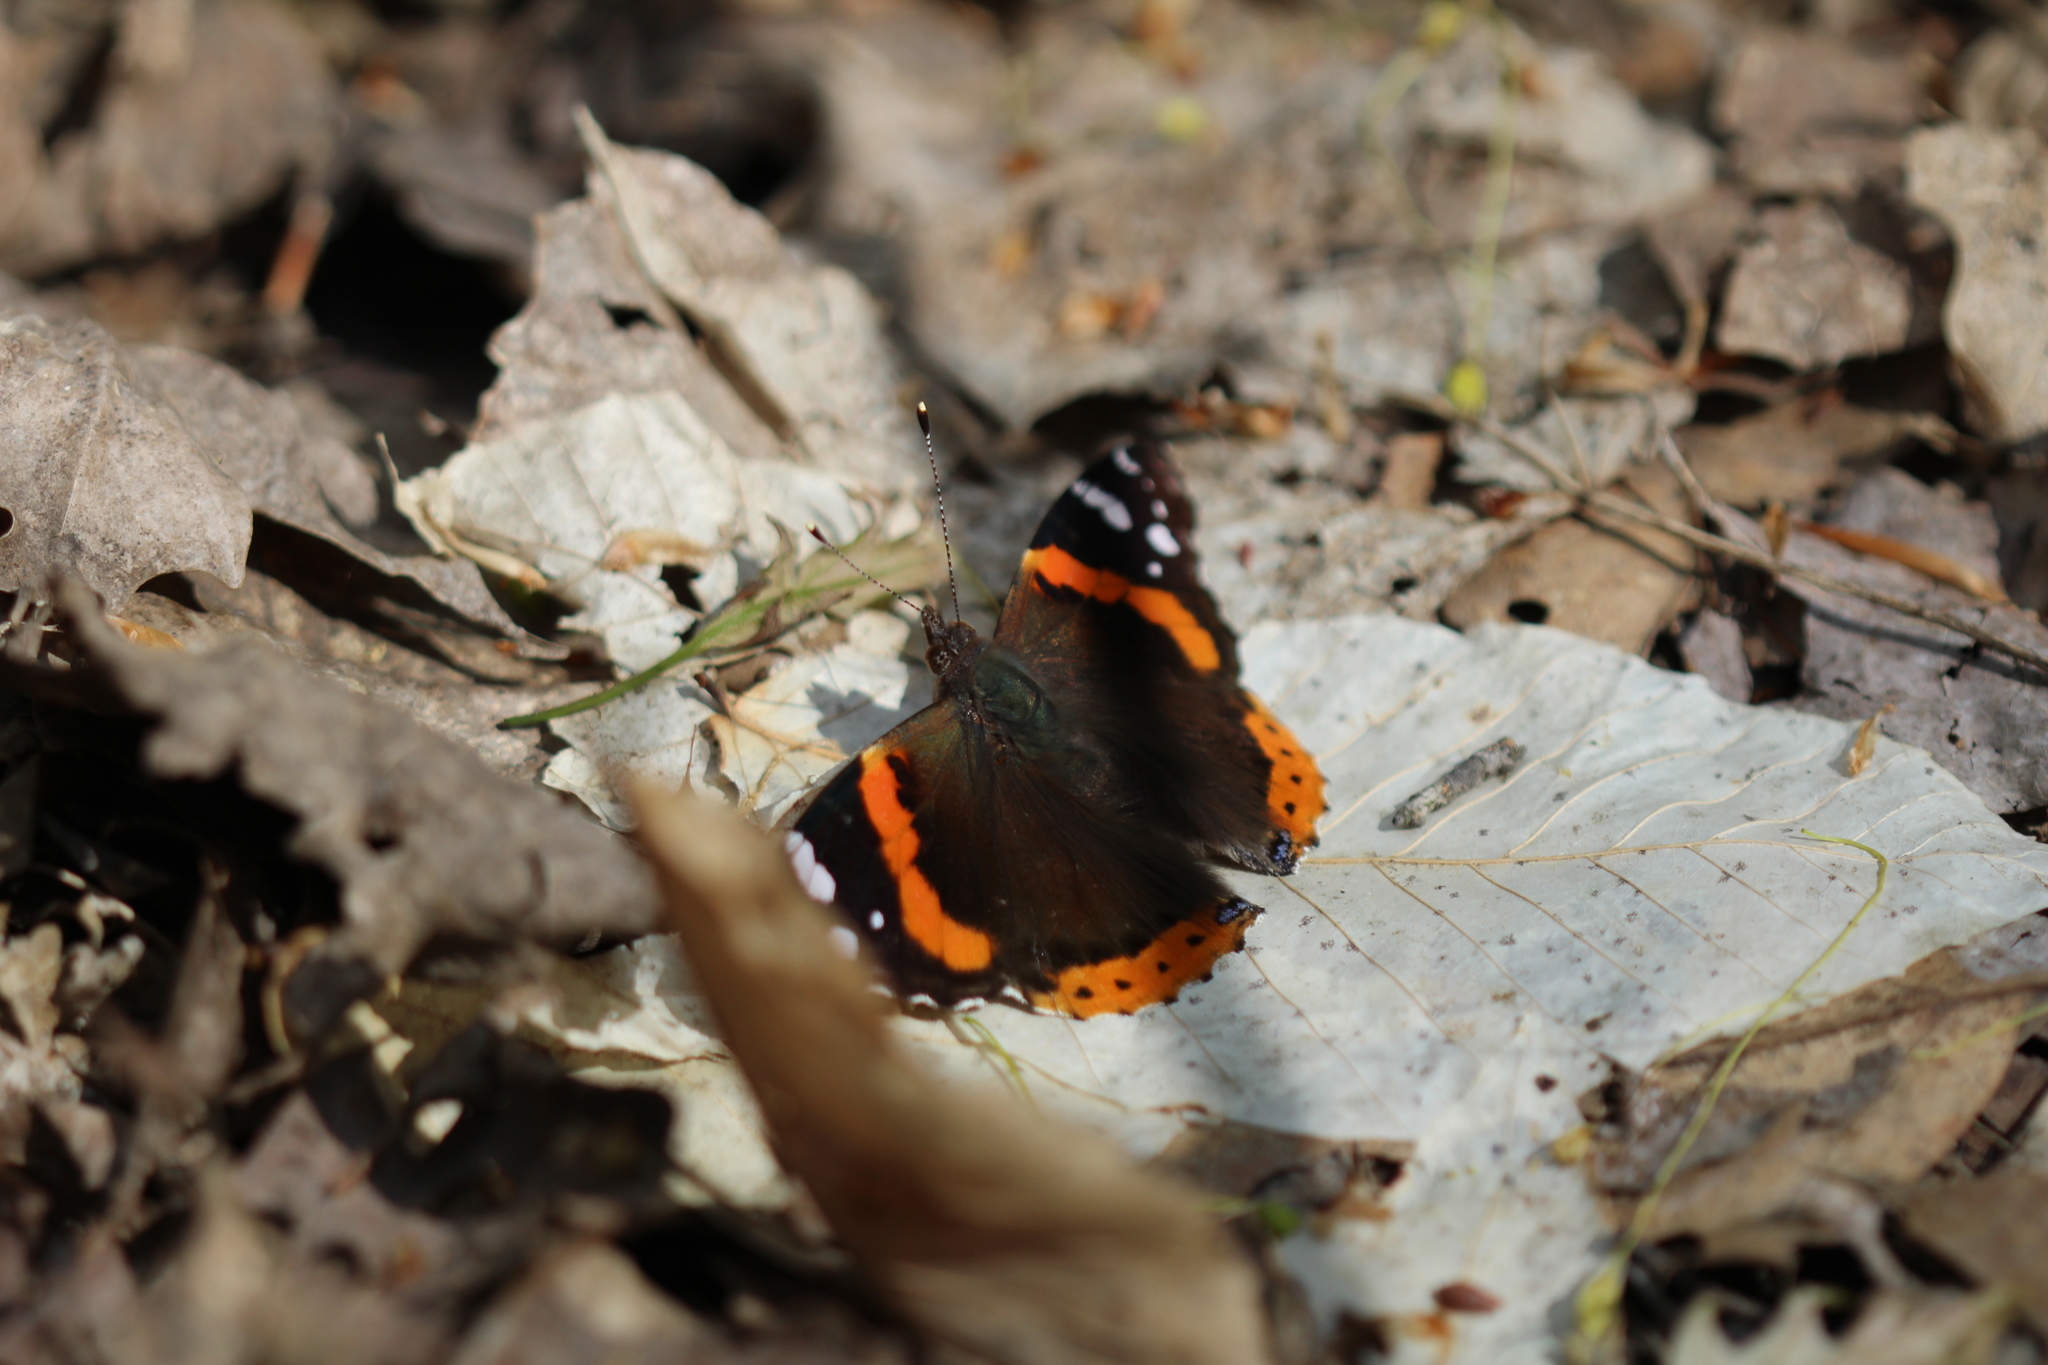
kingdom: Animalia
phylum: Arthropoda
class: Insecta
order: Lepidoptera
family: Nymphalidae
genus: Vanessa
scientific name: Vanessa atalanta
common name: Red admiral
